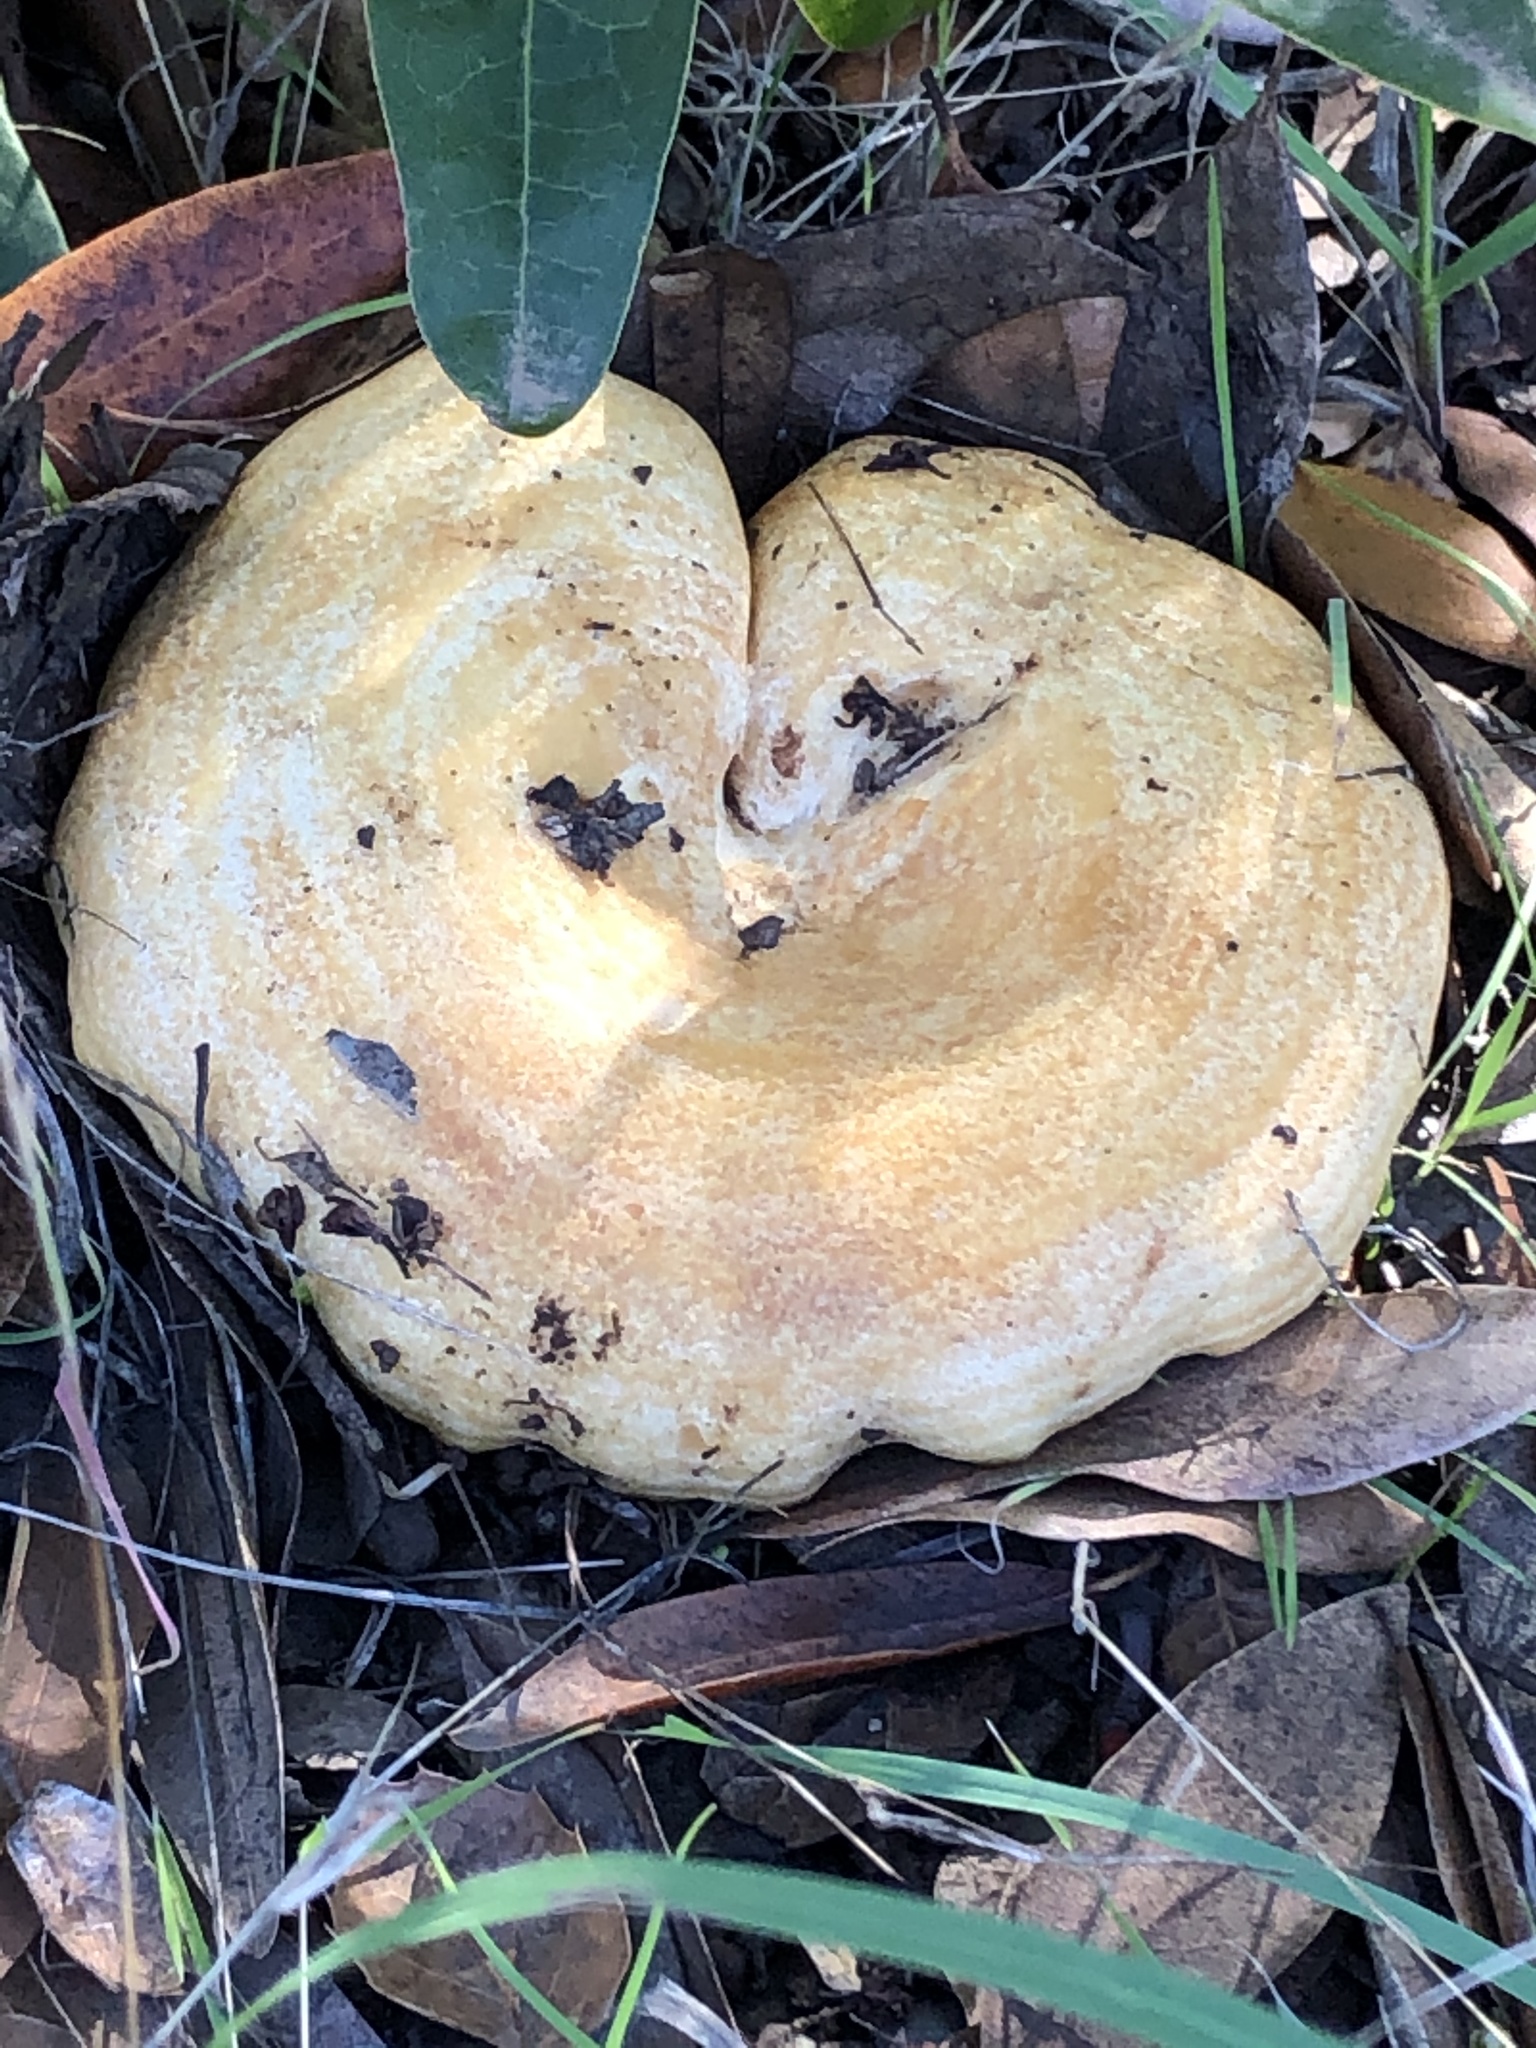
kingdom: Fungi
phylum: Basidiomycota
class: Agaricomycetes
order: Russulales
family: Russulaceae
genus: Lactarius
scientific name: Lactarius alnicola
